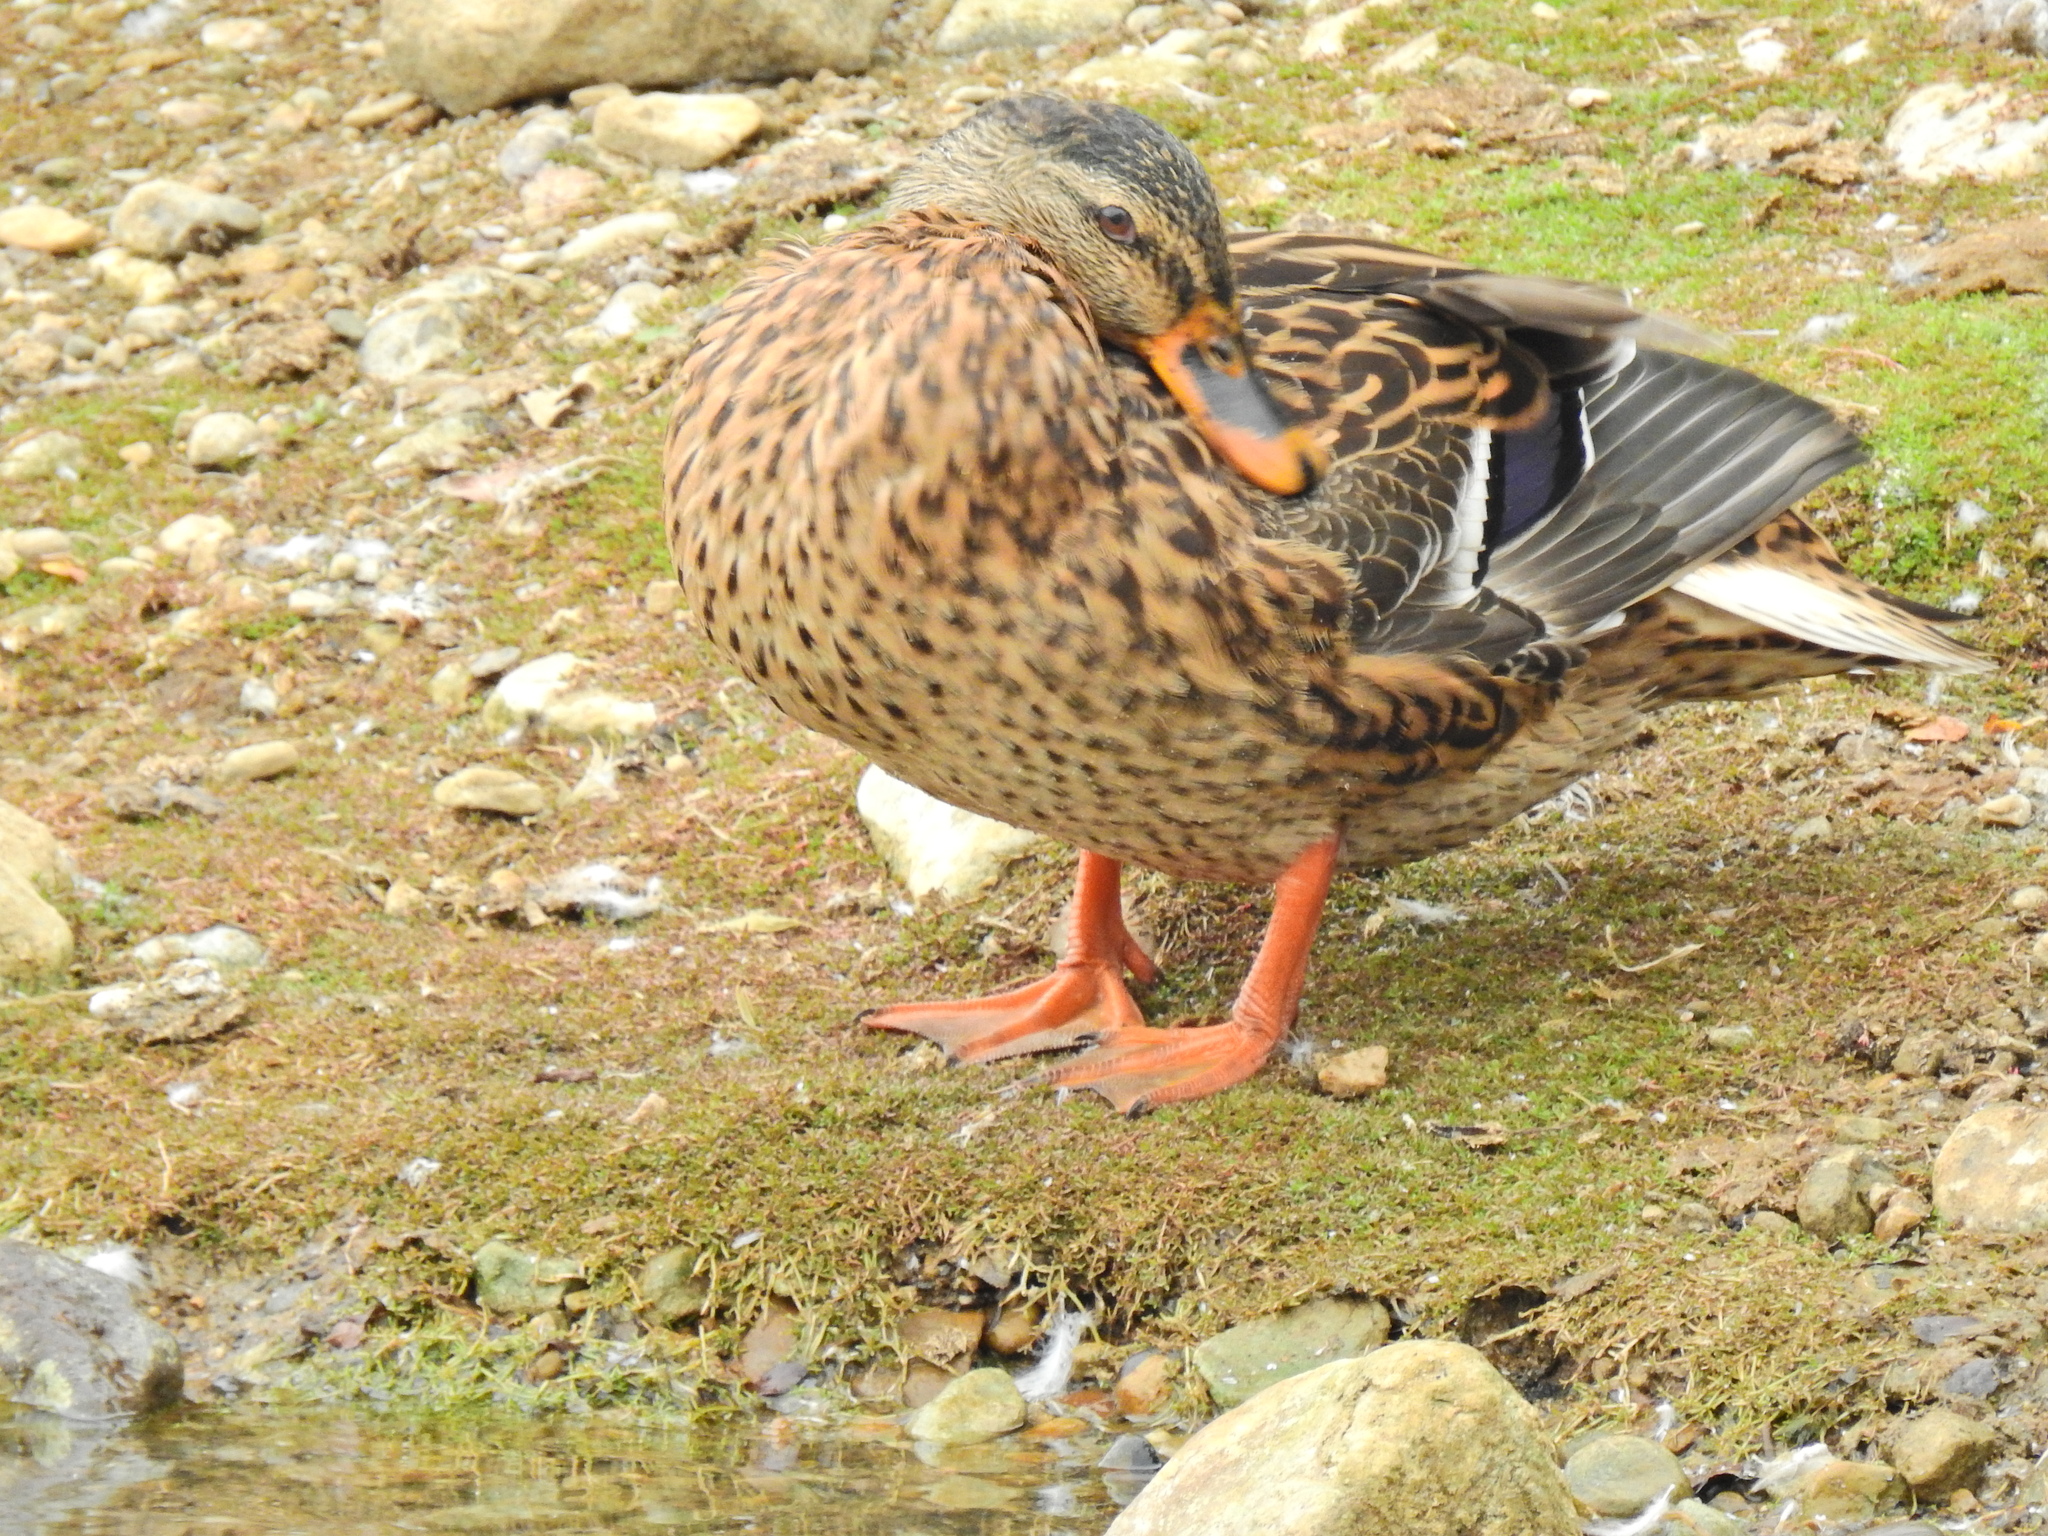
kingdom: Animalia
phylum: Chordata
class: Aves
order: Anseriformes
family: Anatidae
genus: Anas
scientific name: Anas platyrhynchos
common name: Mallard
